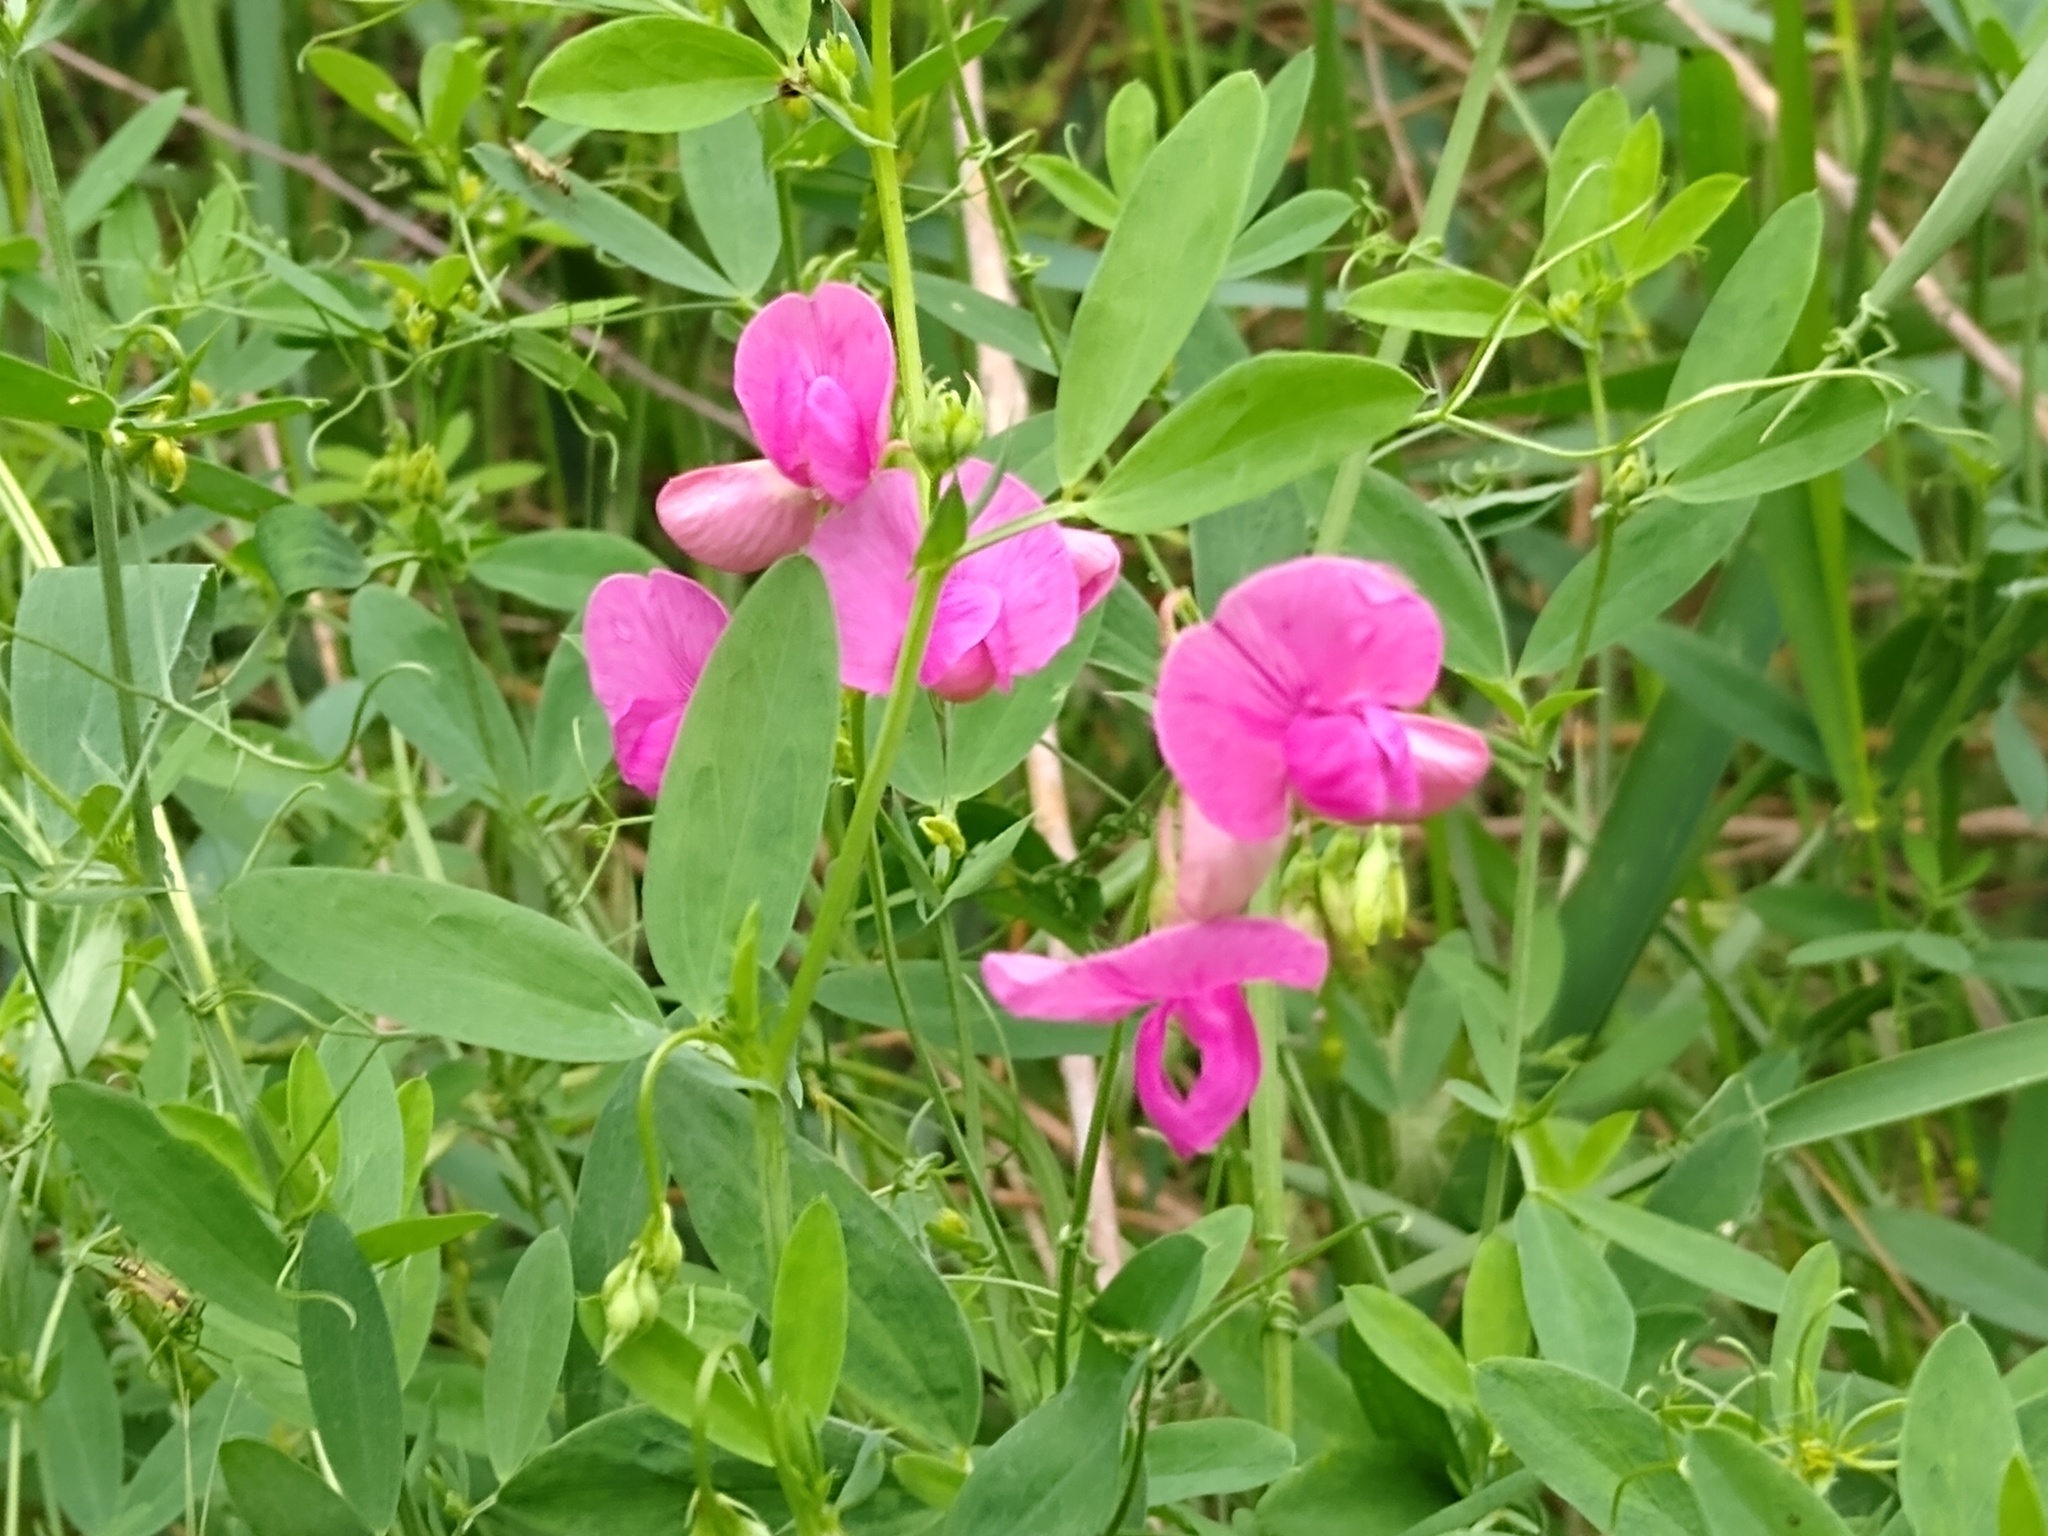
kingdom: Plantae
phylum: Tracheophyta
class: Magnoliopsida
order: Fabales
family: Fabaceae
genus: Lathyrus
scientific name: Lathyrus tuberosus
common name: Tuberous pea
